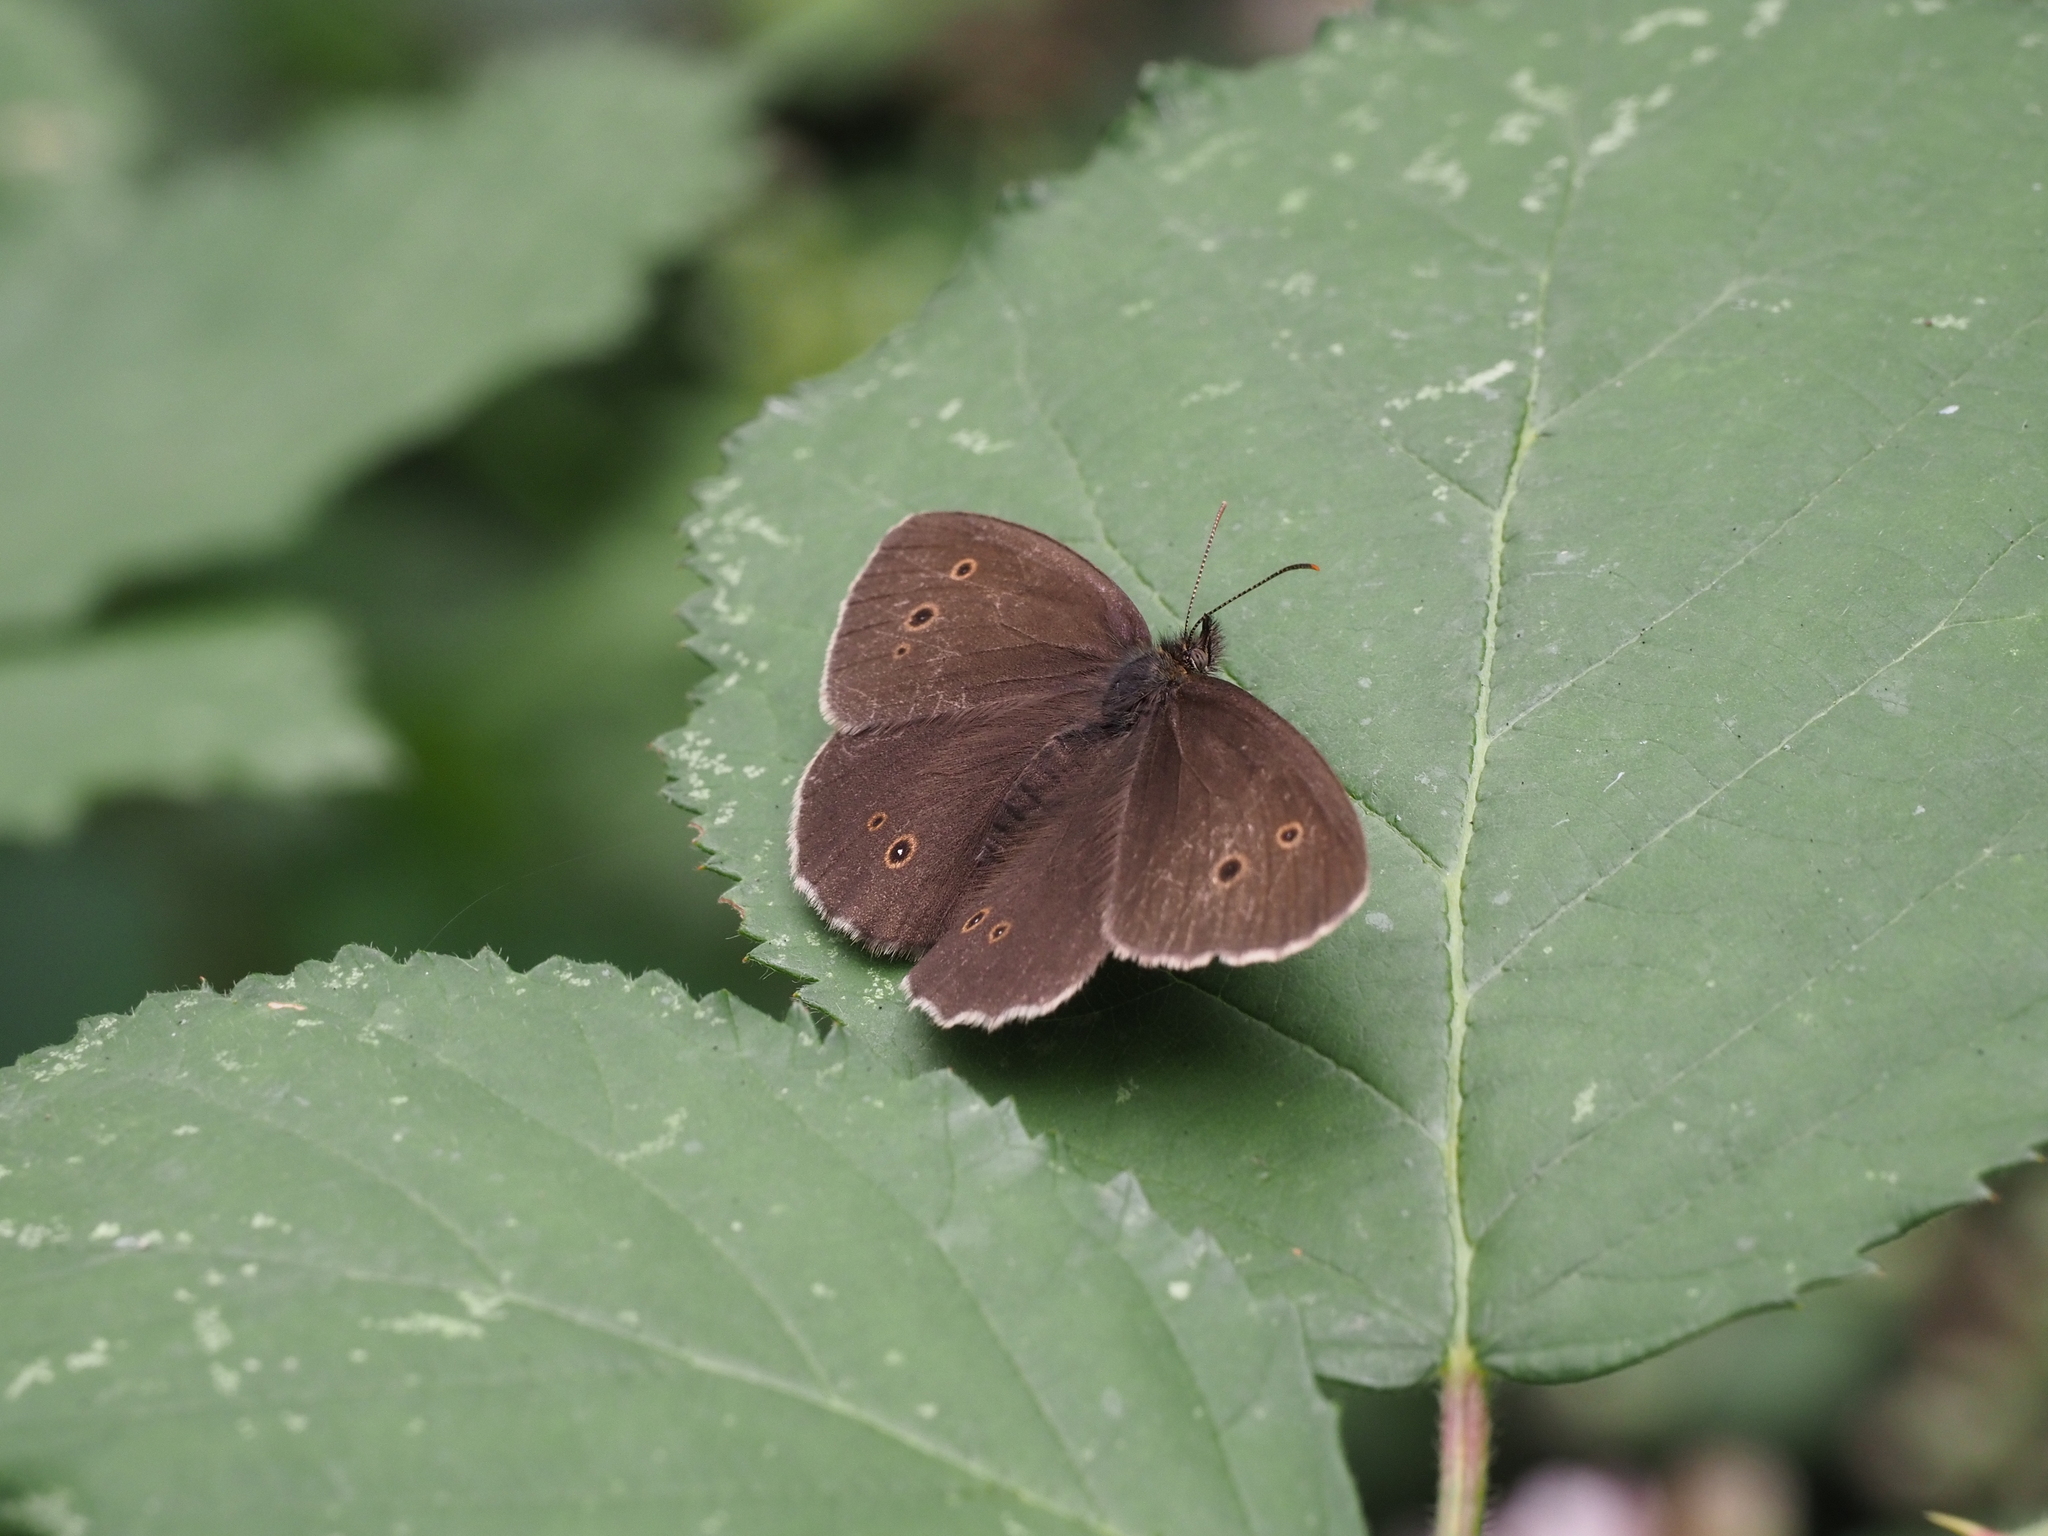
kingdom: Animalia
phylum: Arthropoda
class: Insecta
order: Lepidoptera
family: Nymphalidae
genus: Aphantopus
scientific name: Aphantopus hyperantus
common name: Ringlet
